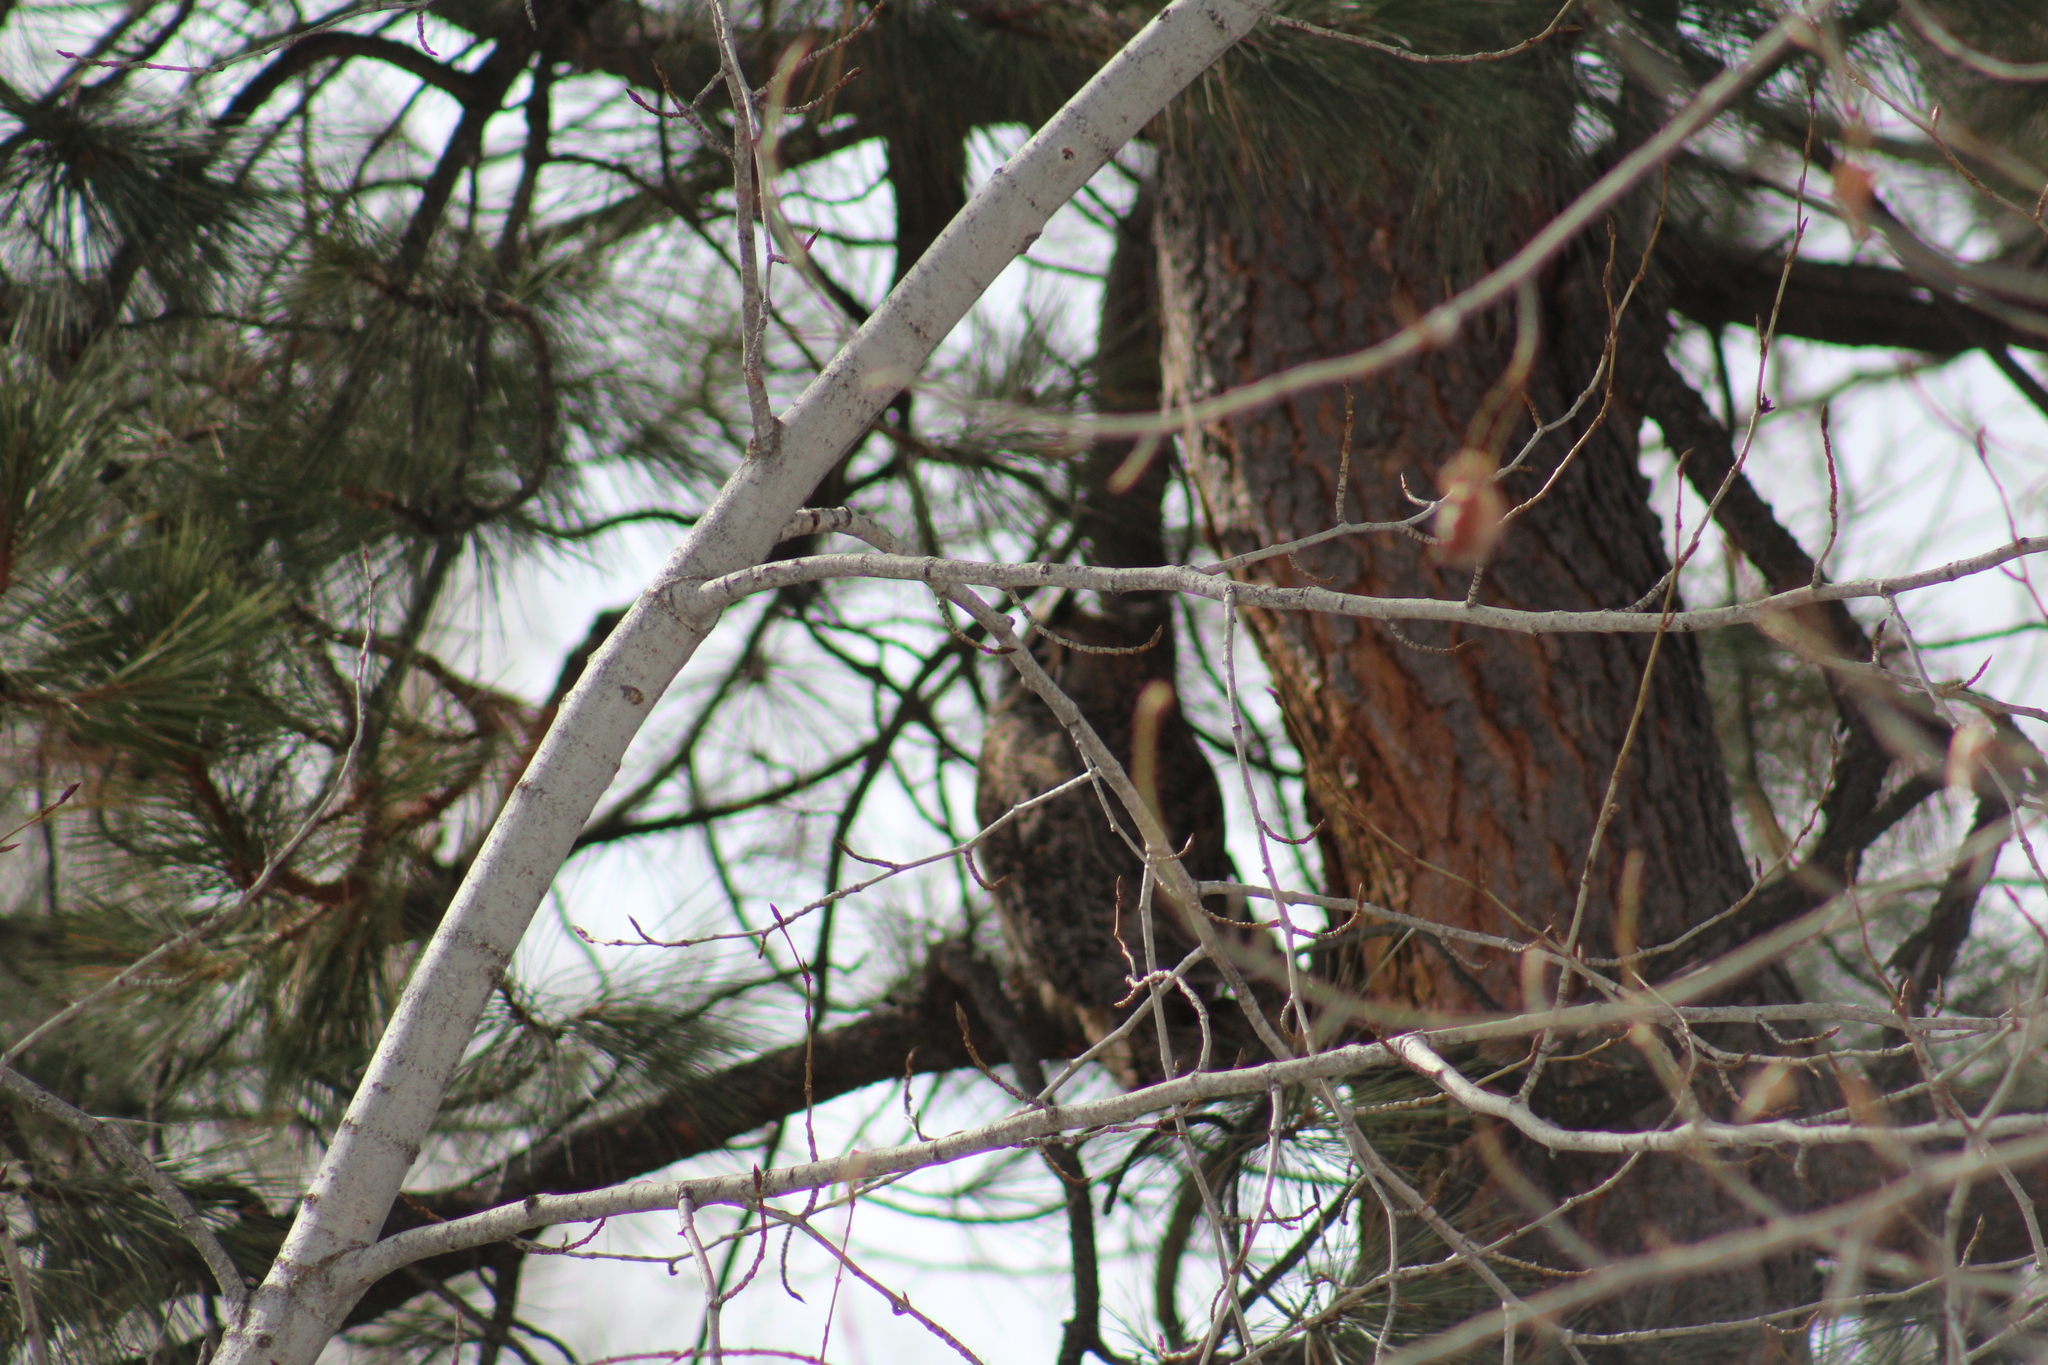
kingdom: Animalia
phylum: Chordata
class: Aves
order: Strigiformes
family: Strigidae
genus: Bubo
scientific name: Bubo virginianus
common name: Great horned owl
